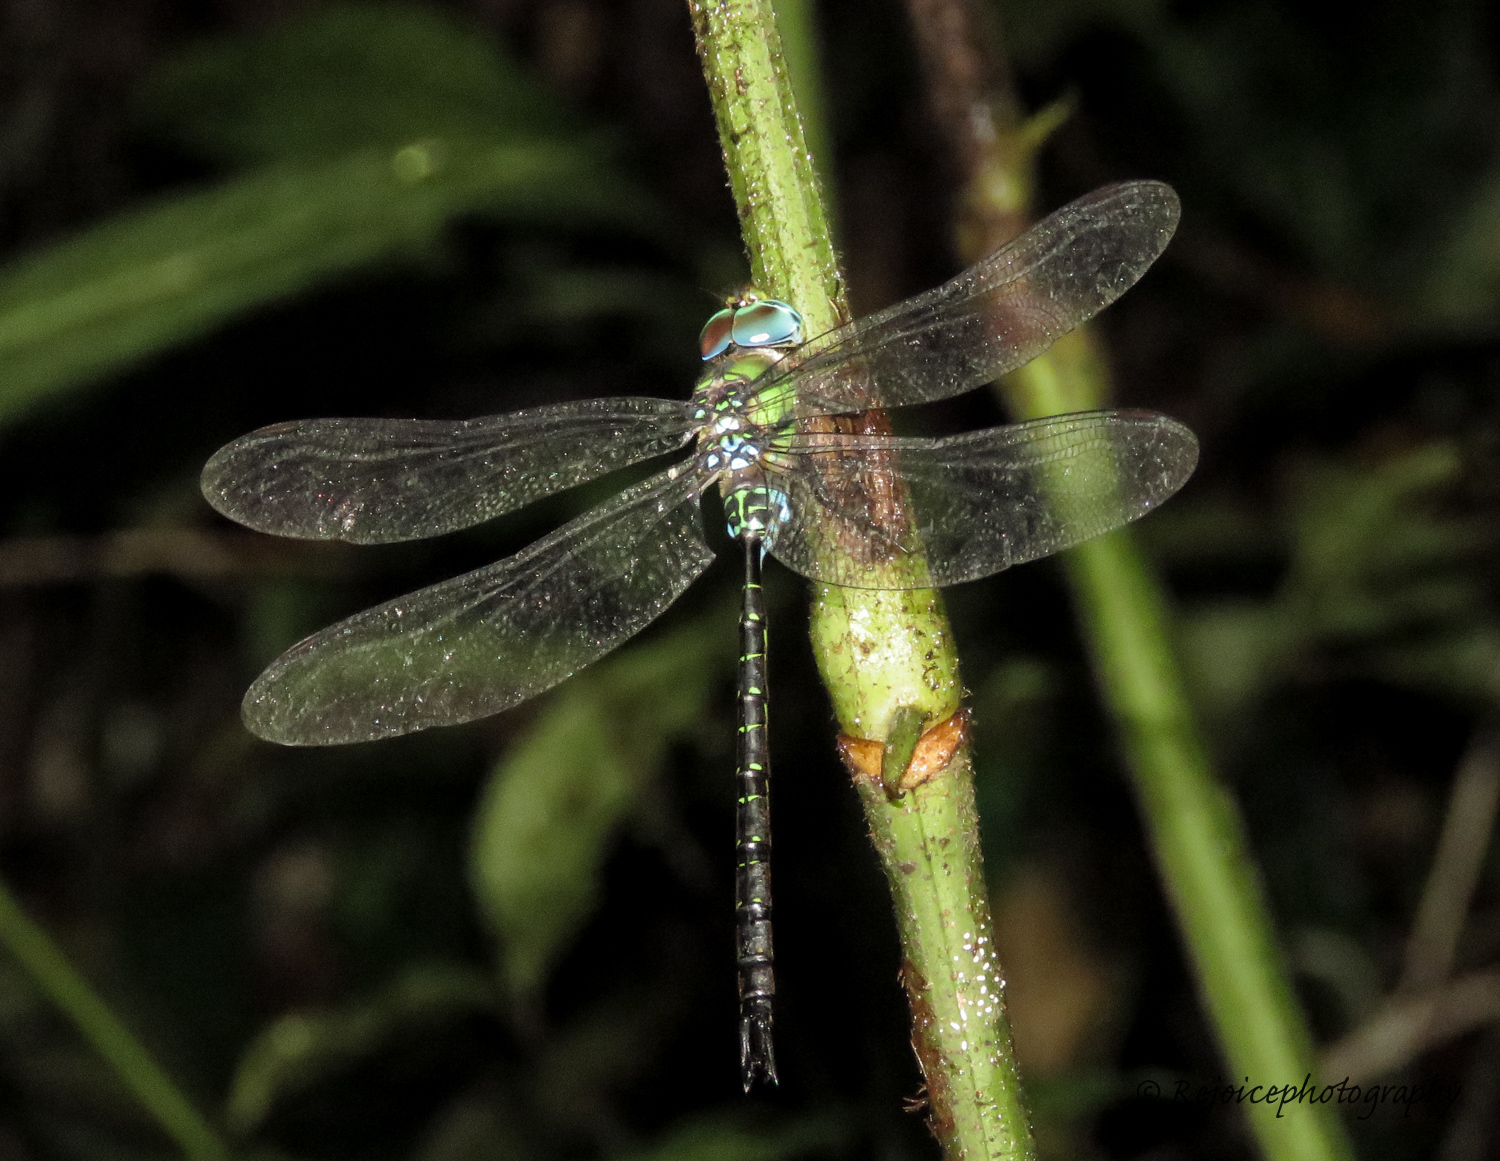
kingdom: Animalia
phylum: Arthropoda
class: Insecta
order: Odonata
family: Aeshnidae
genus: Gynacantha
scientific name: Gynacantha khasiaca
